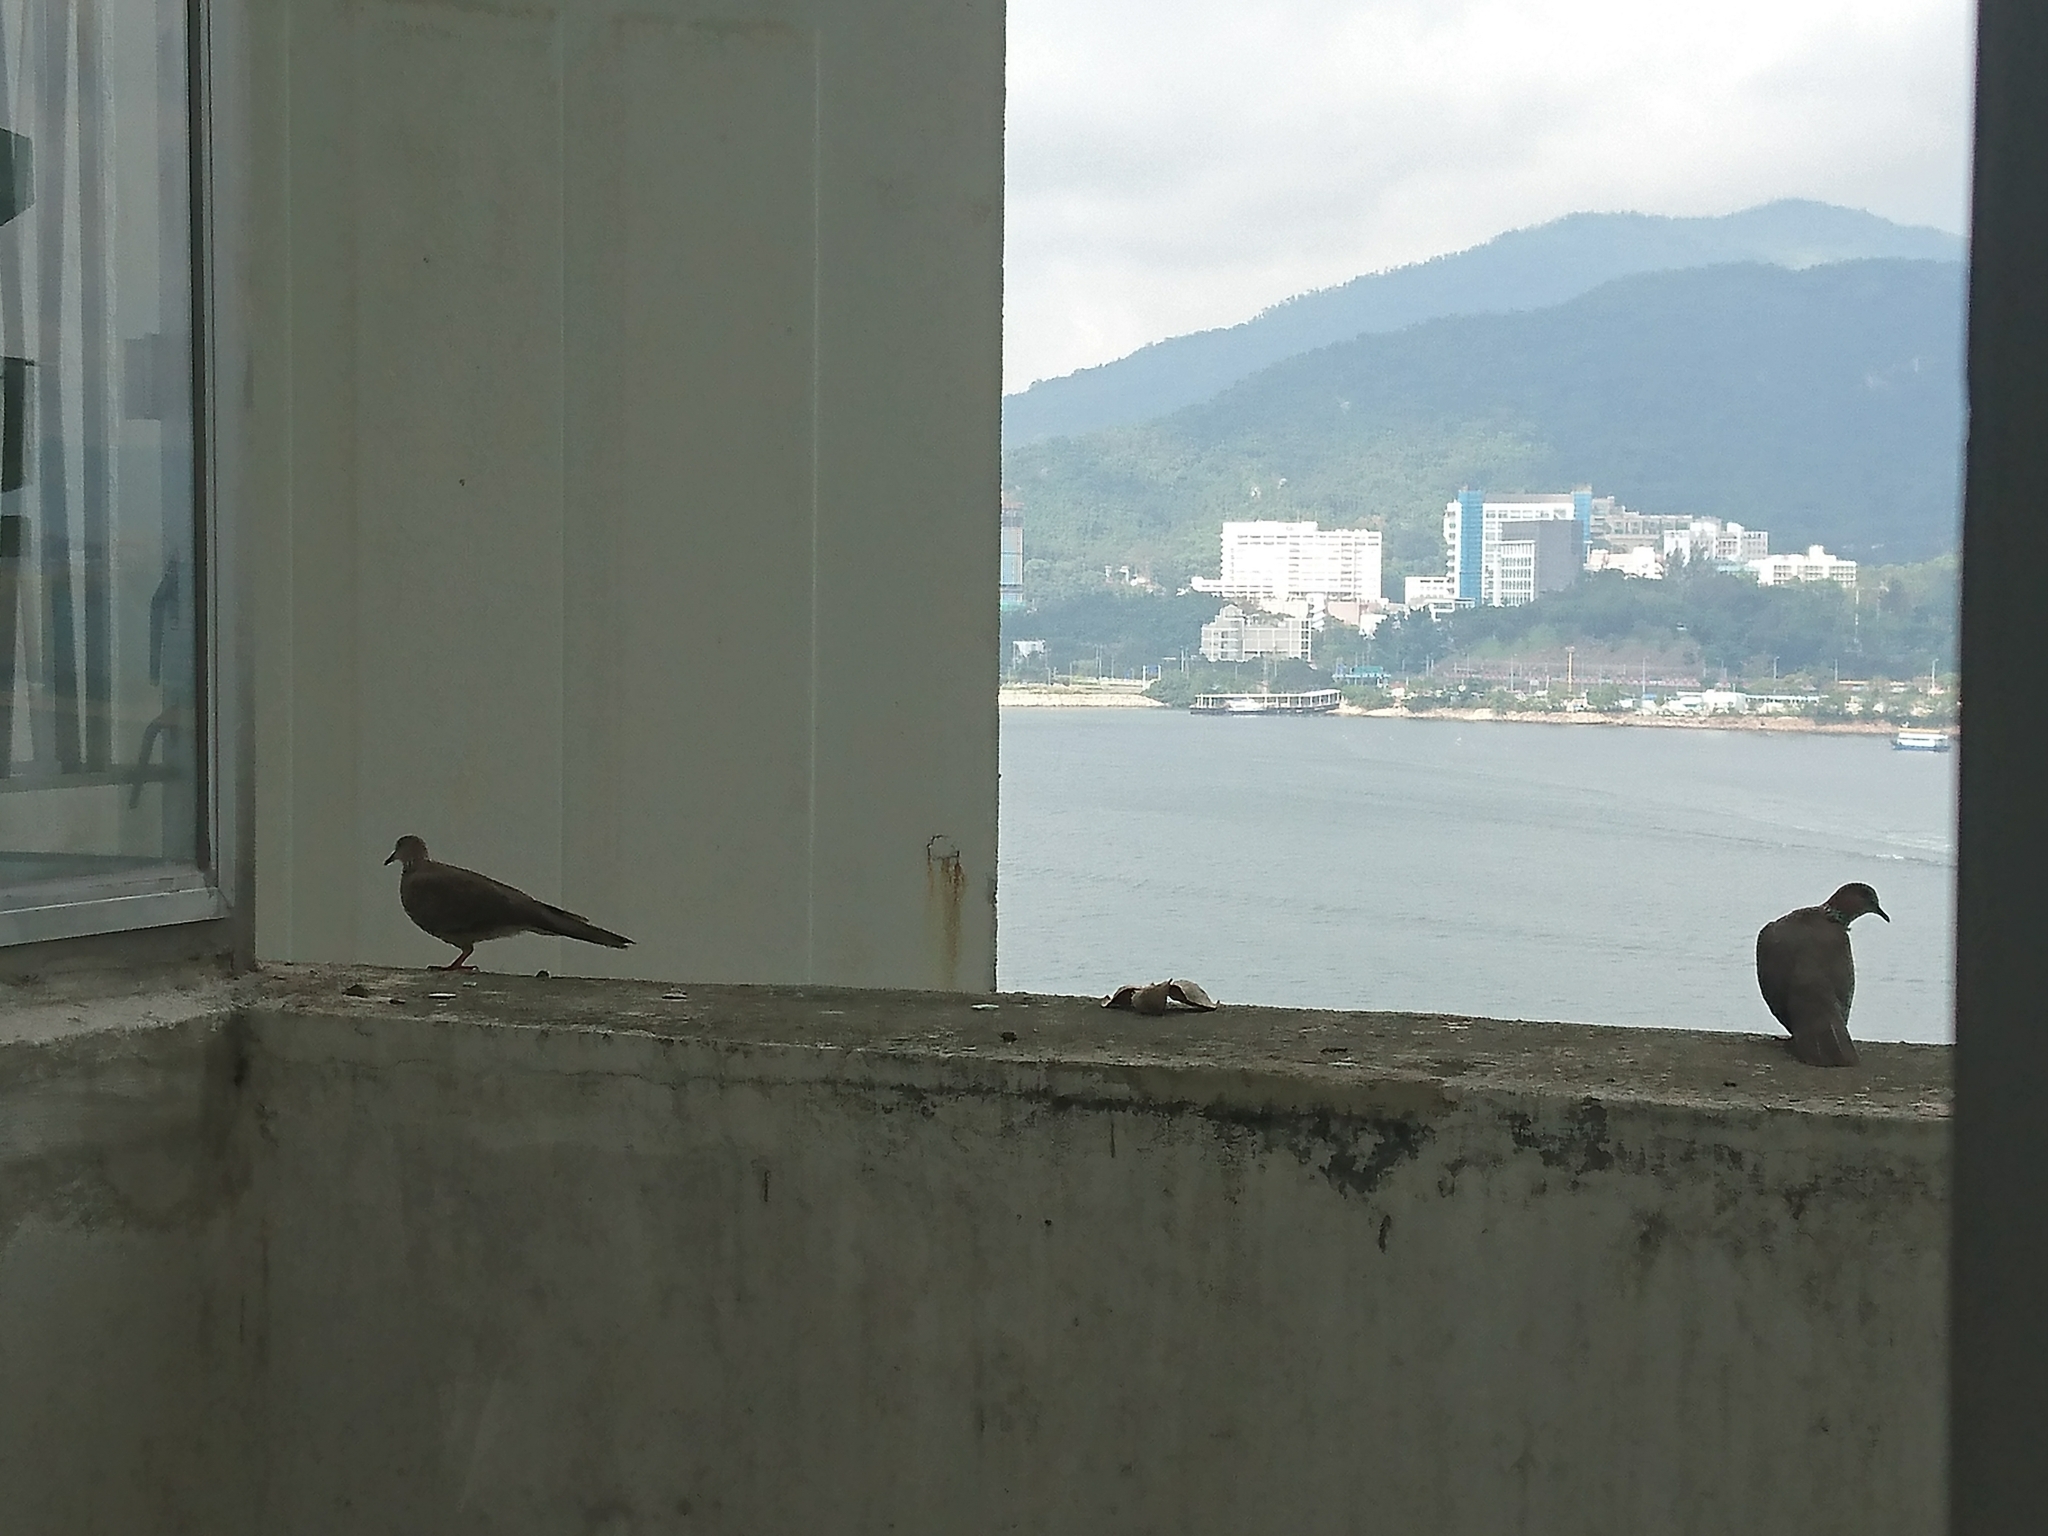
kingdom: Animalia
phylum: Chordata
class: Aves
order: Columbiformes
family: Columbidae
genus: Spilopelia
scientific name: Spilopelia chinensis
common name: Spotted dove
